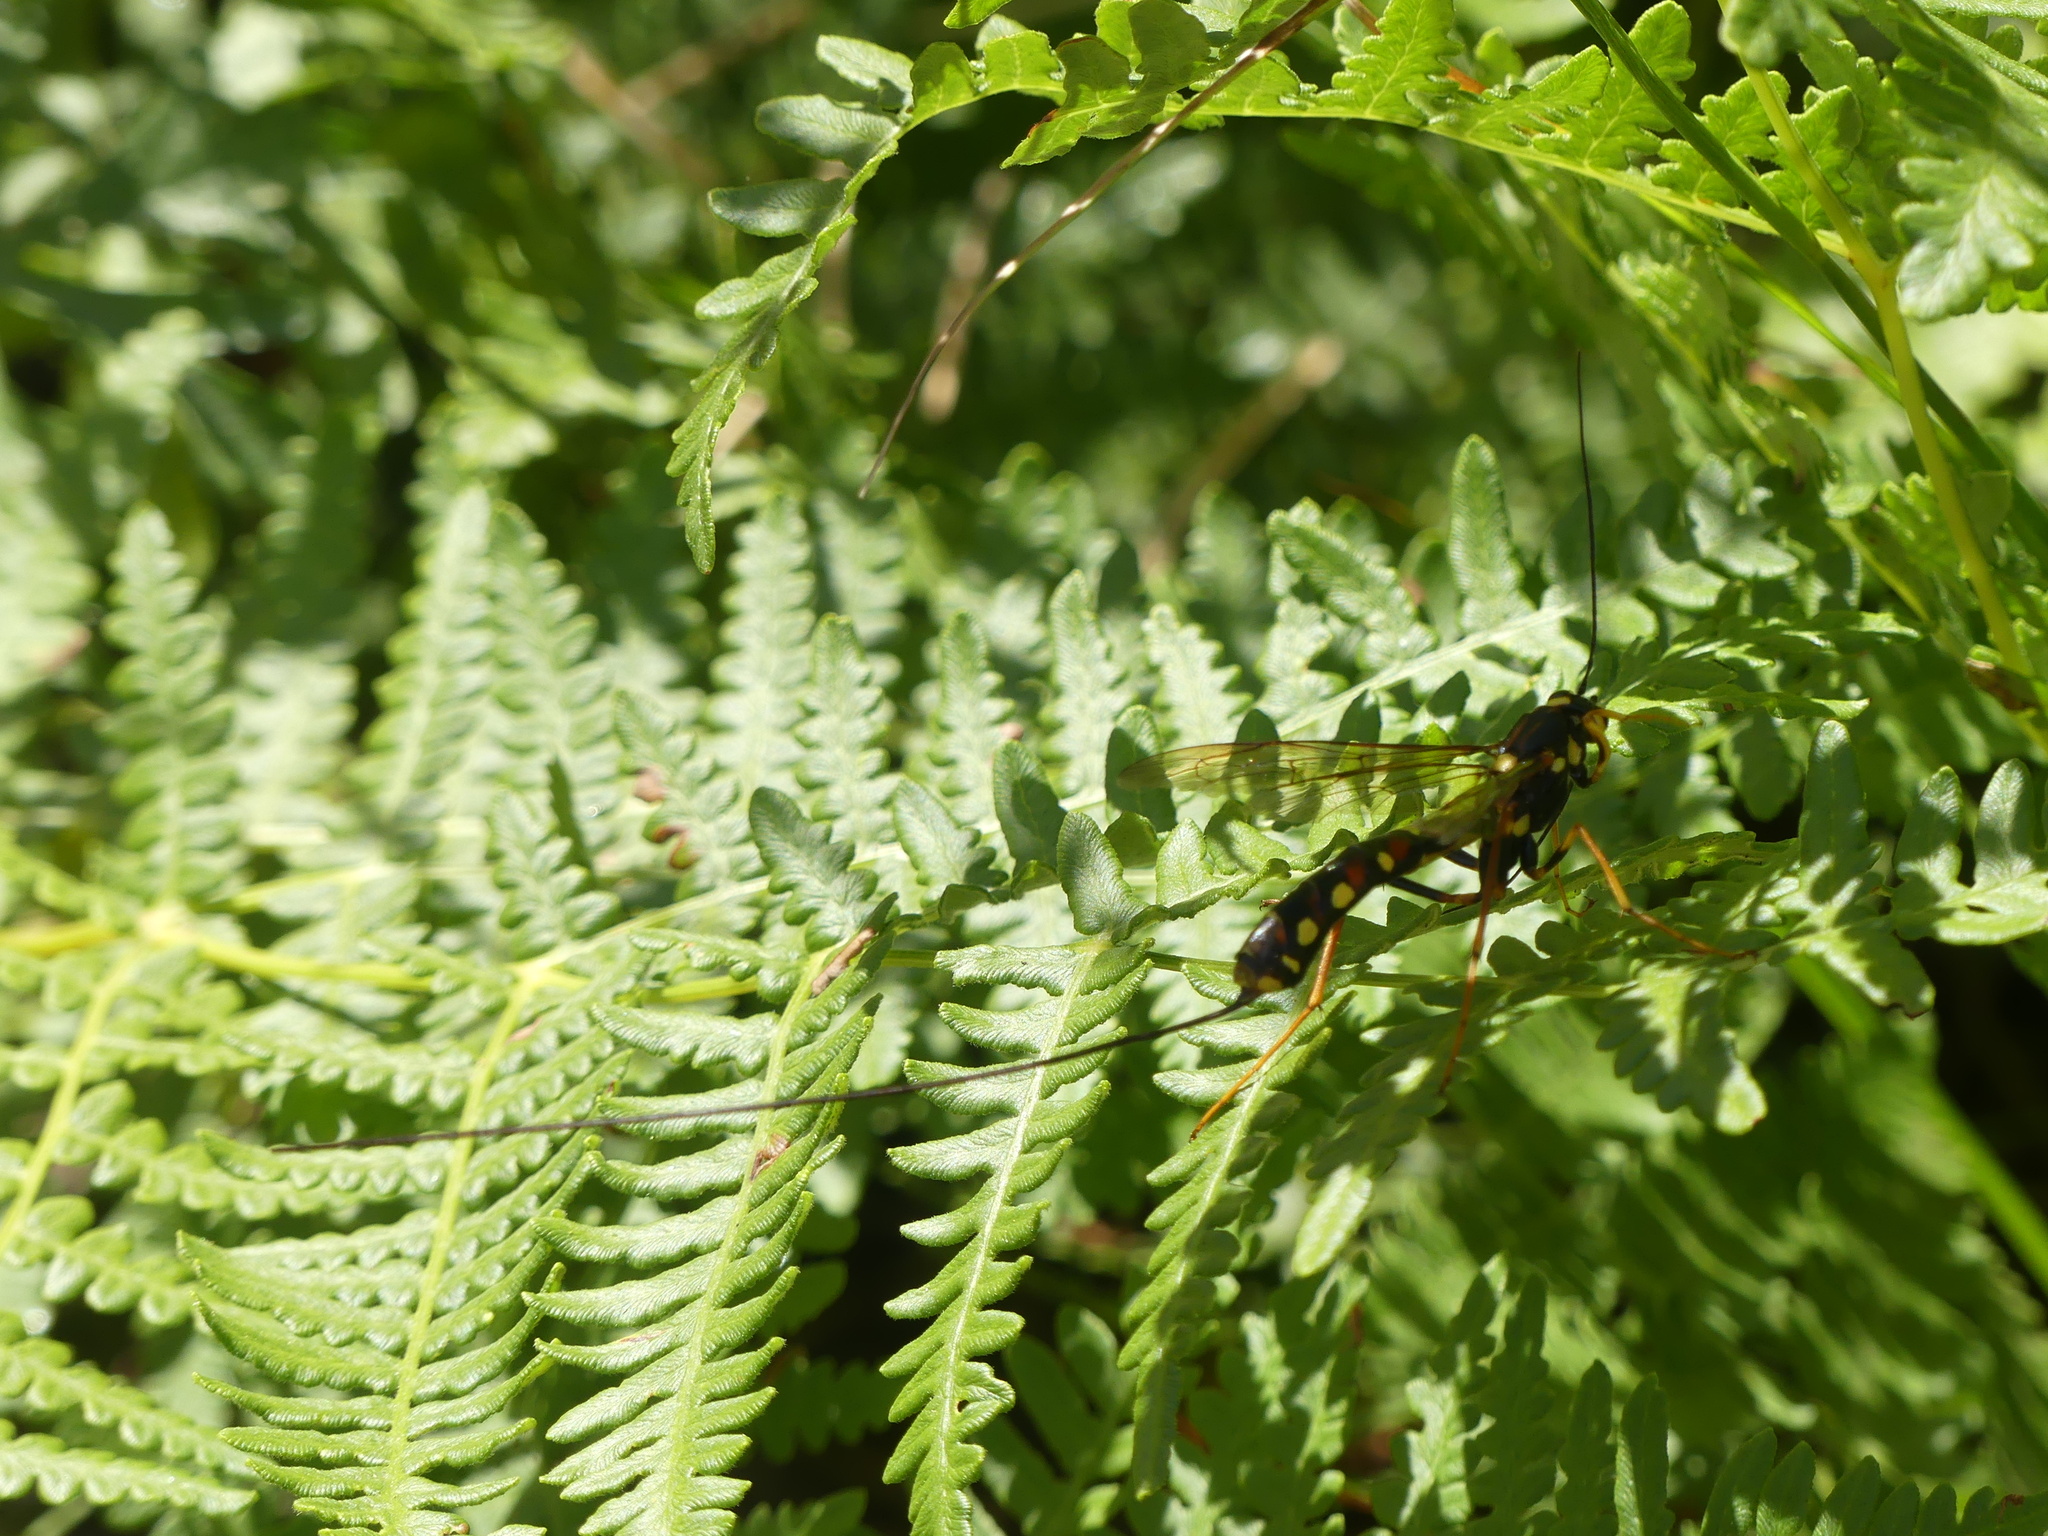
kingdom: Animalia
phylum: Arthropoda
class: Insecta
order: Hymenoptera
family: Ichneumonidae
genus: Megarhyssa
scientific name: Megarhyssa nortoni
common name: Norton's giant ichneumonid wasp
